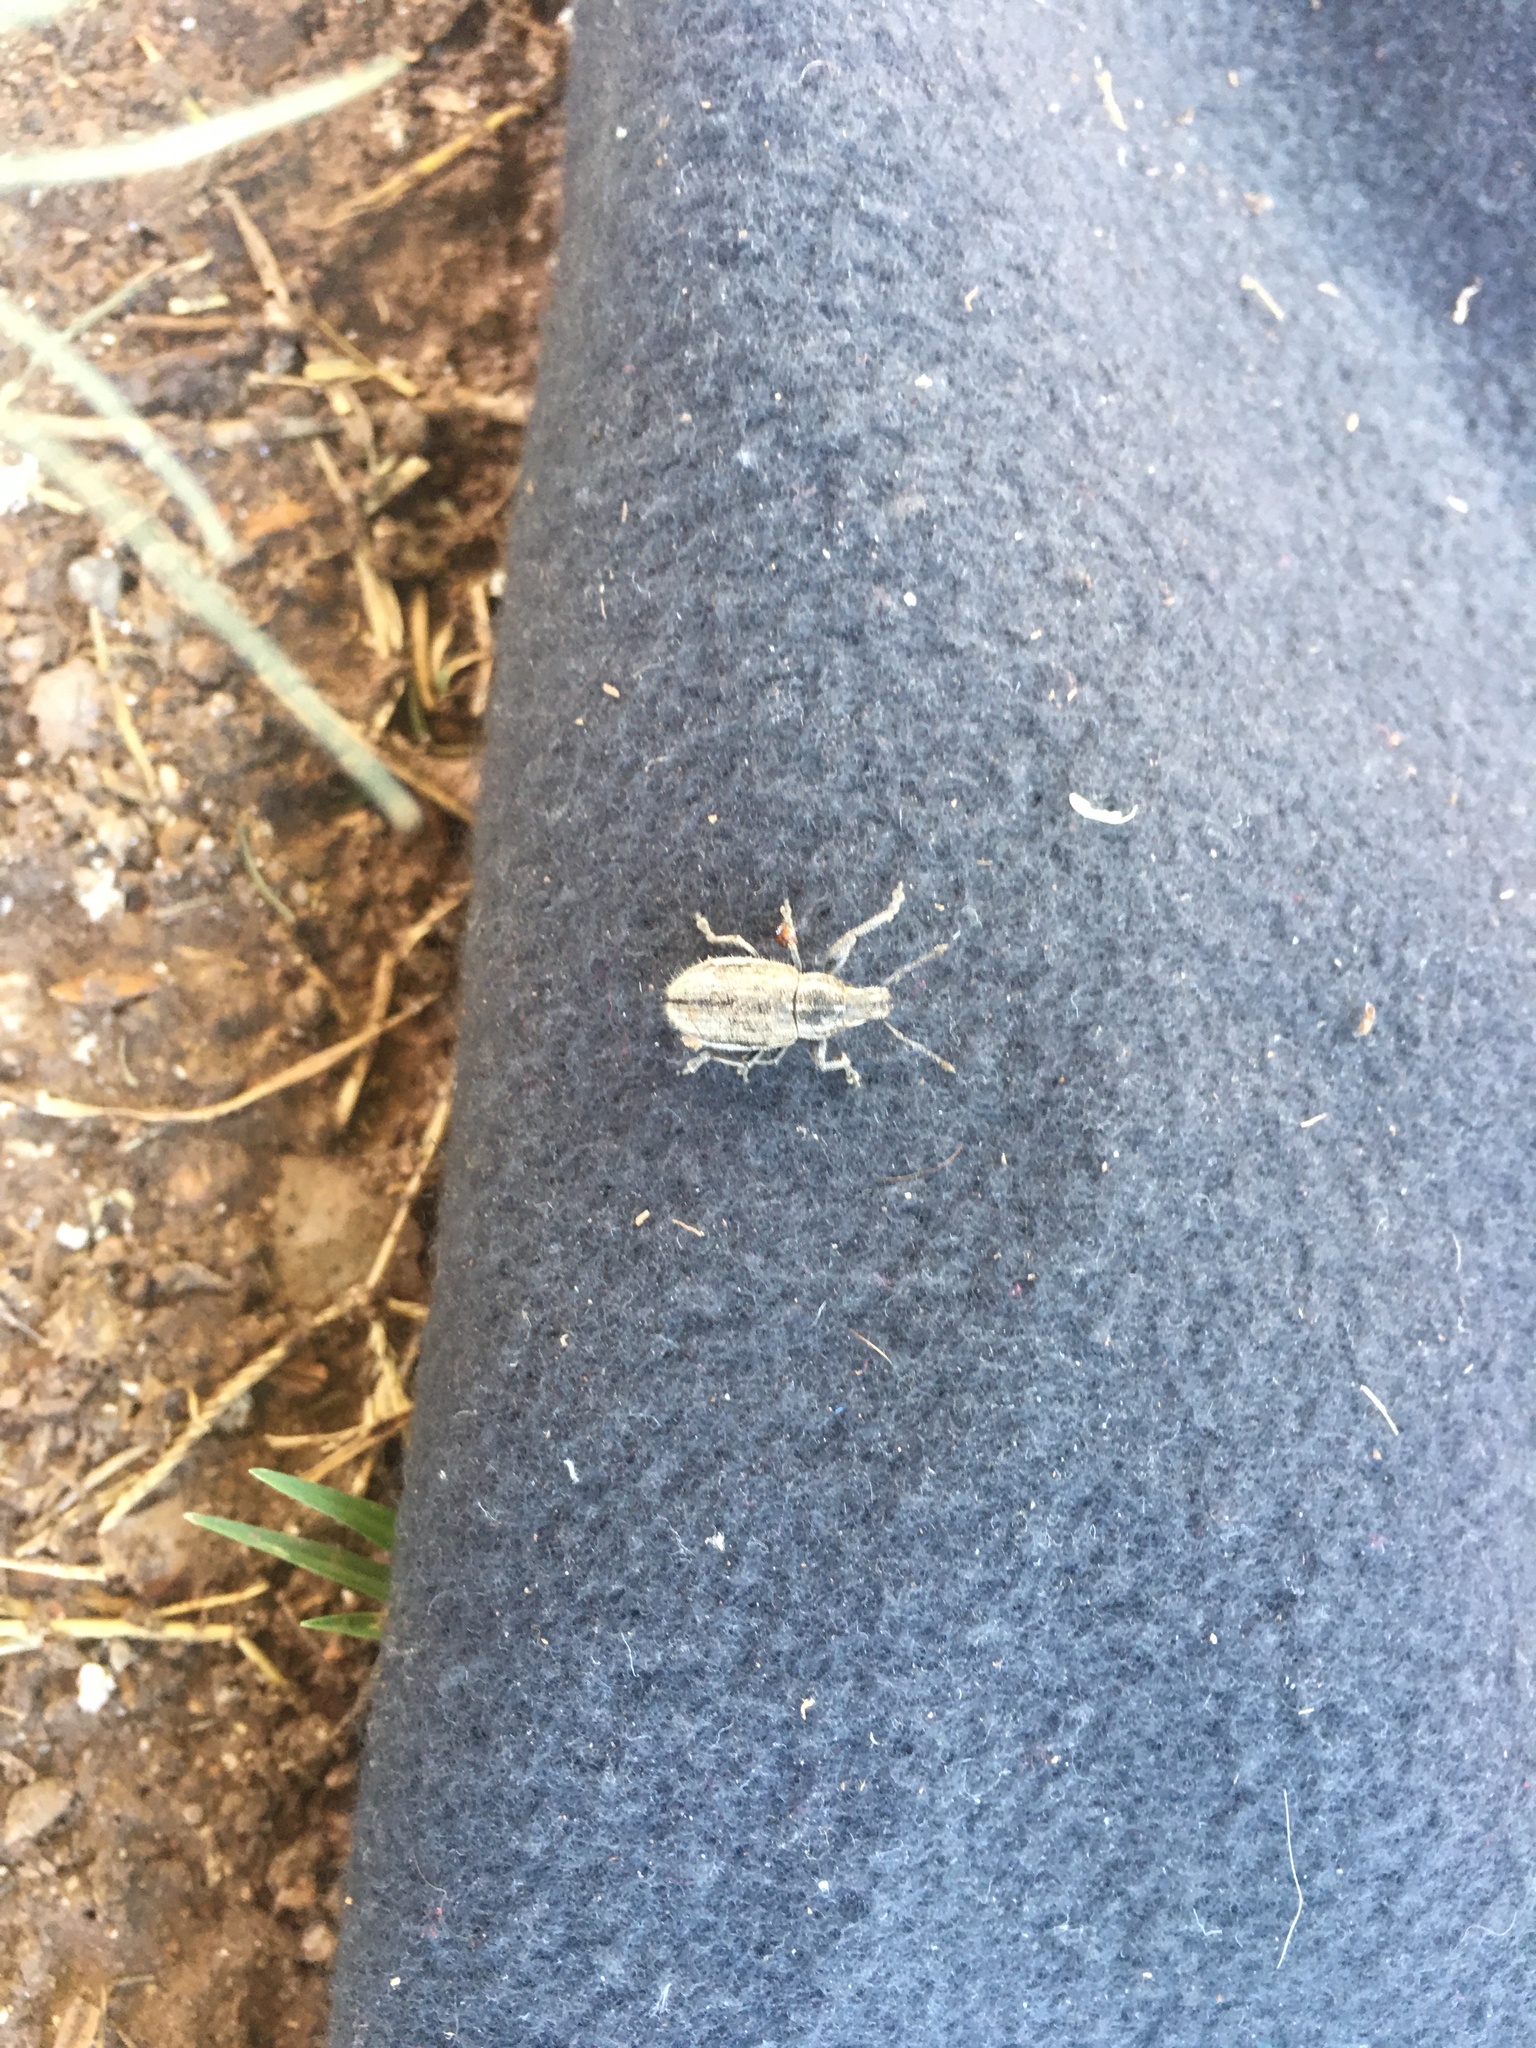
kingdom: Animalia
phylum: Arthropoda
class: Insecta
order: Coleoptera
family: Curculionidae
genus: Naupactus
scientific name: Naupactus leucoloma
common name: Whitefringed beetle
